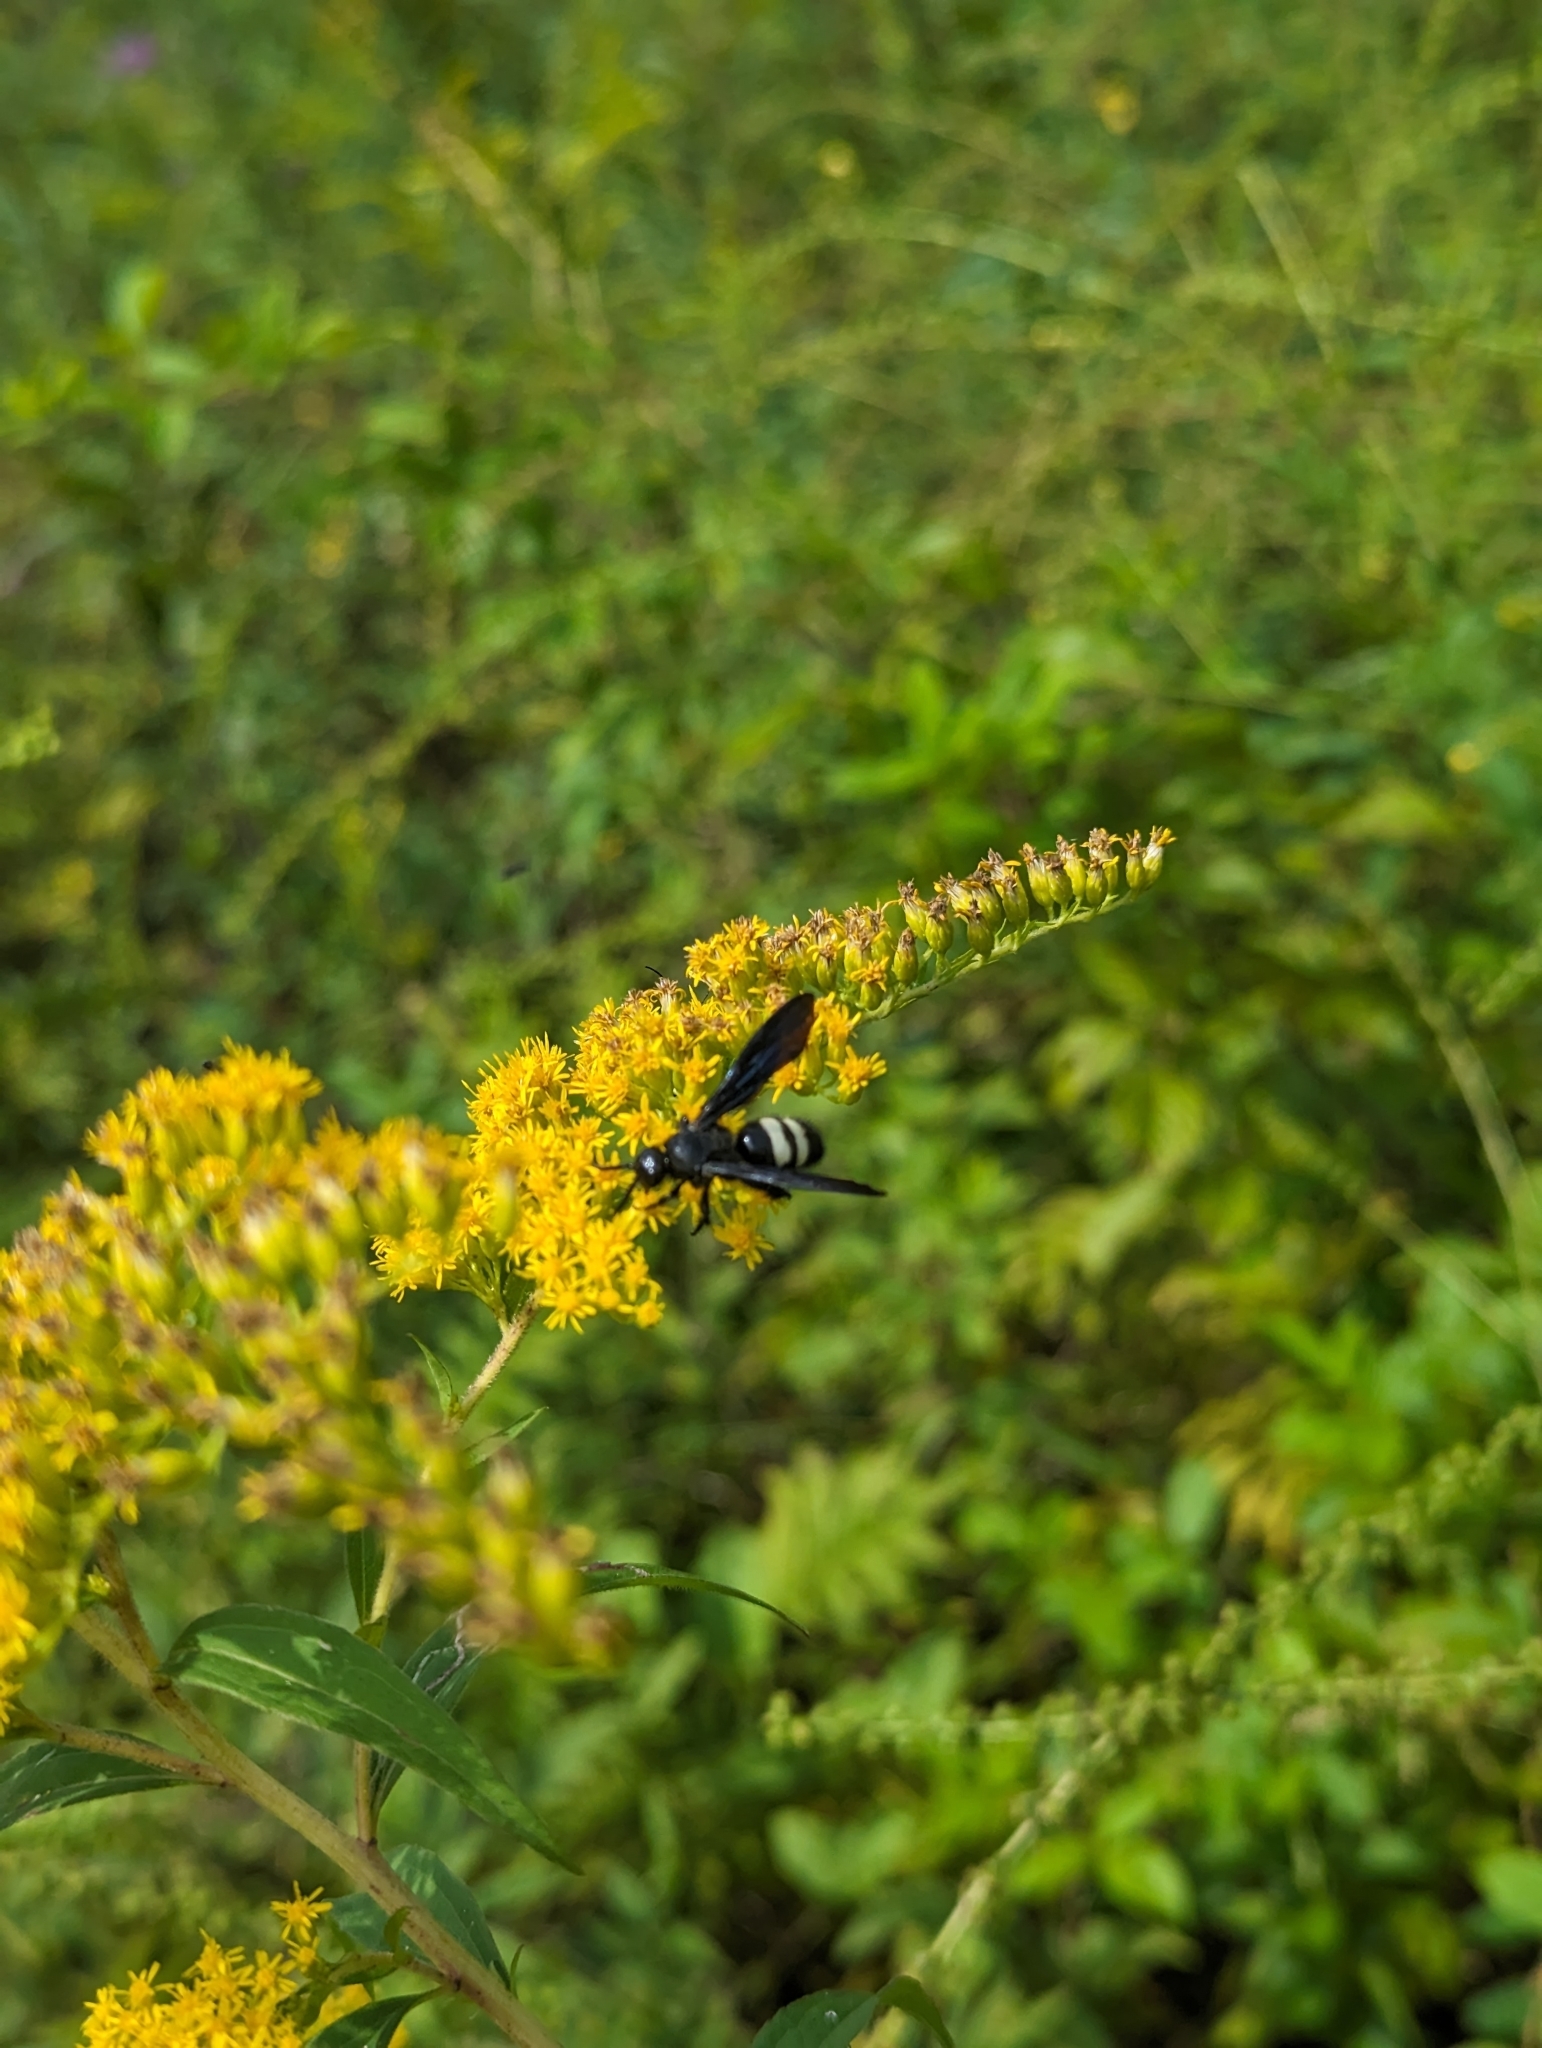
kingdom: Animalia
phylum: Arthropoda
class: Insecta
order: Hymenoptera
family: Scoliidae
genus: Scolia
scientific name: Scolia bicincta
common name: Double-banded scoliid wasp
